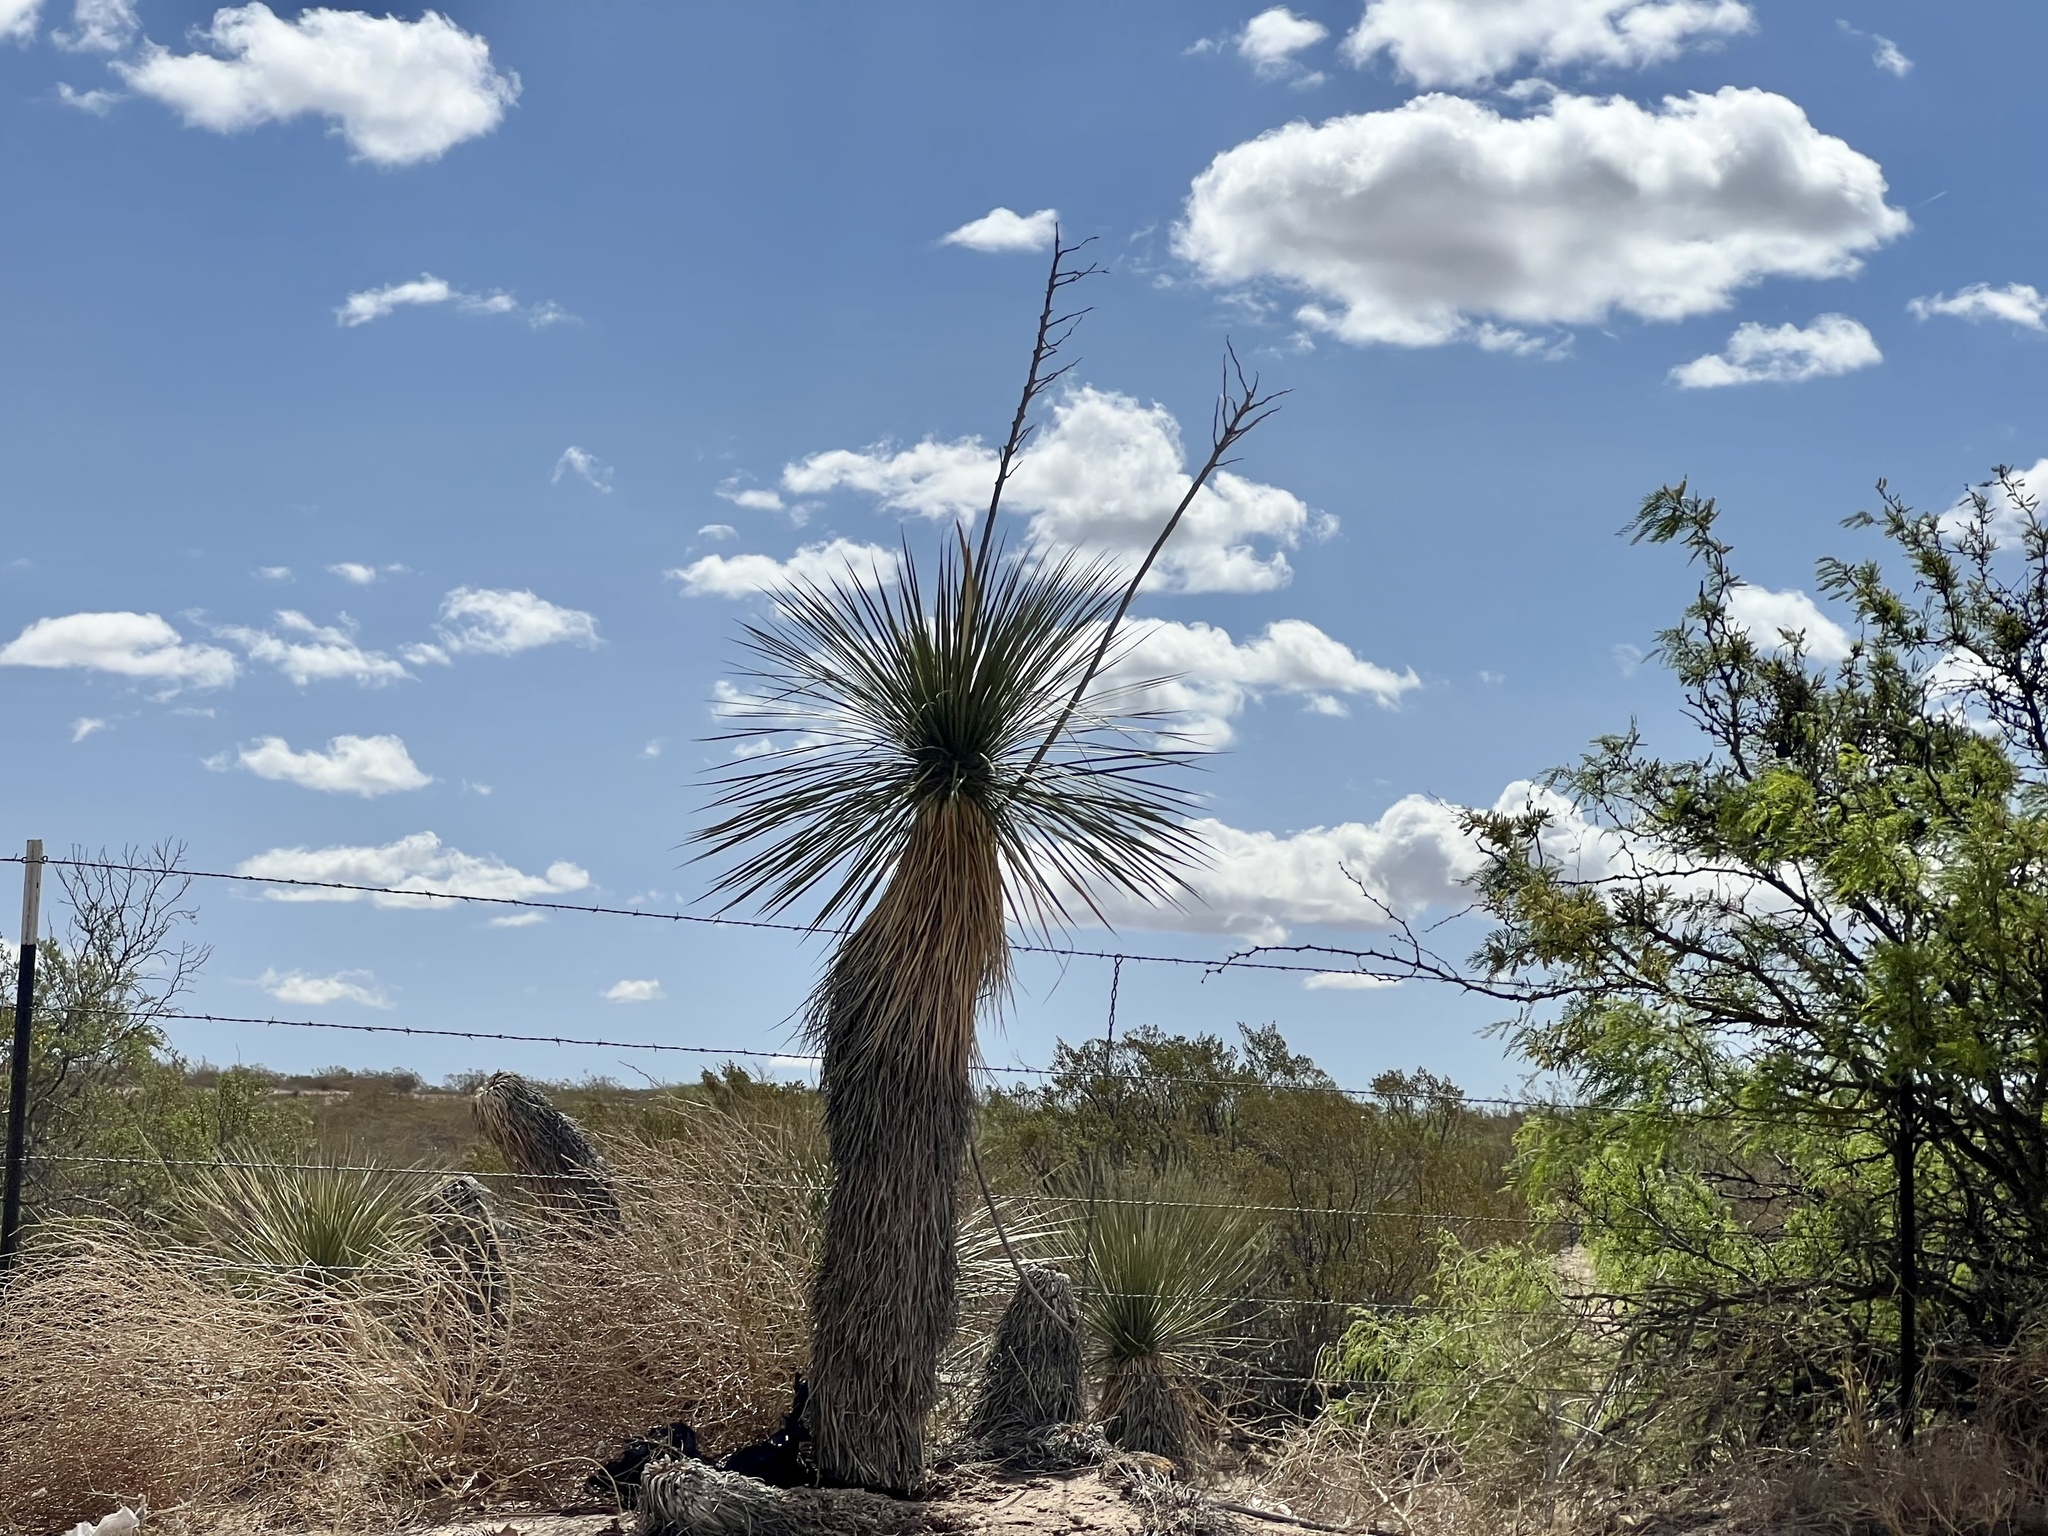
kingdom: Plantae
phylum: Tracheophyta
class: Liliopsida
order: Asparagales
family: Asparagaceae
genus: Yucca
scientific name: Yucca elata
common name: Palmella
